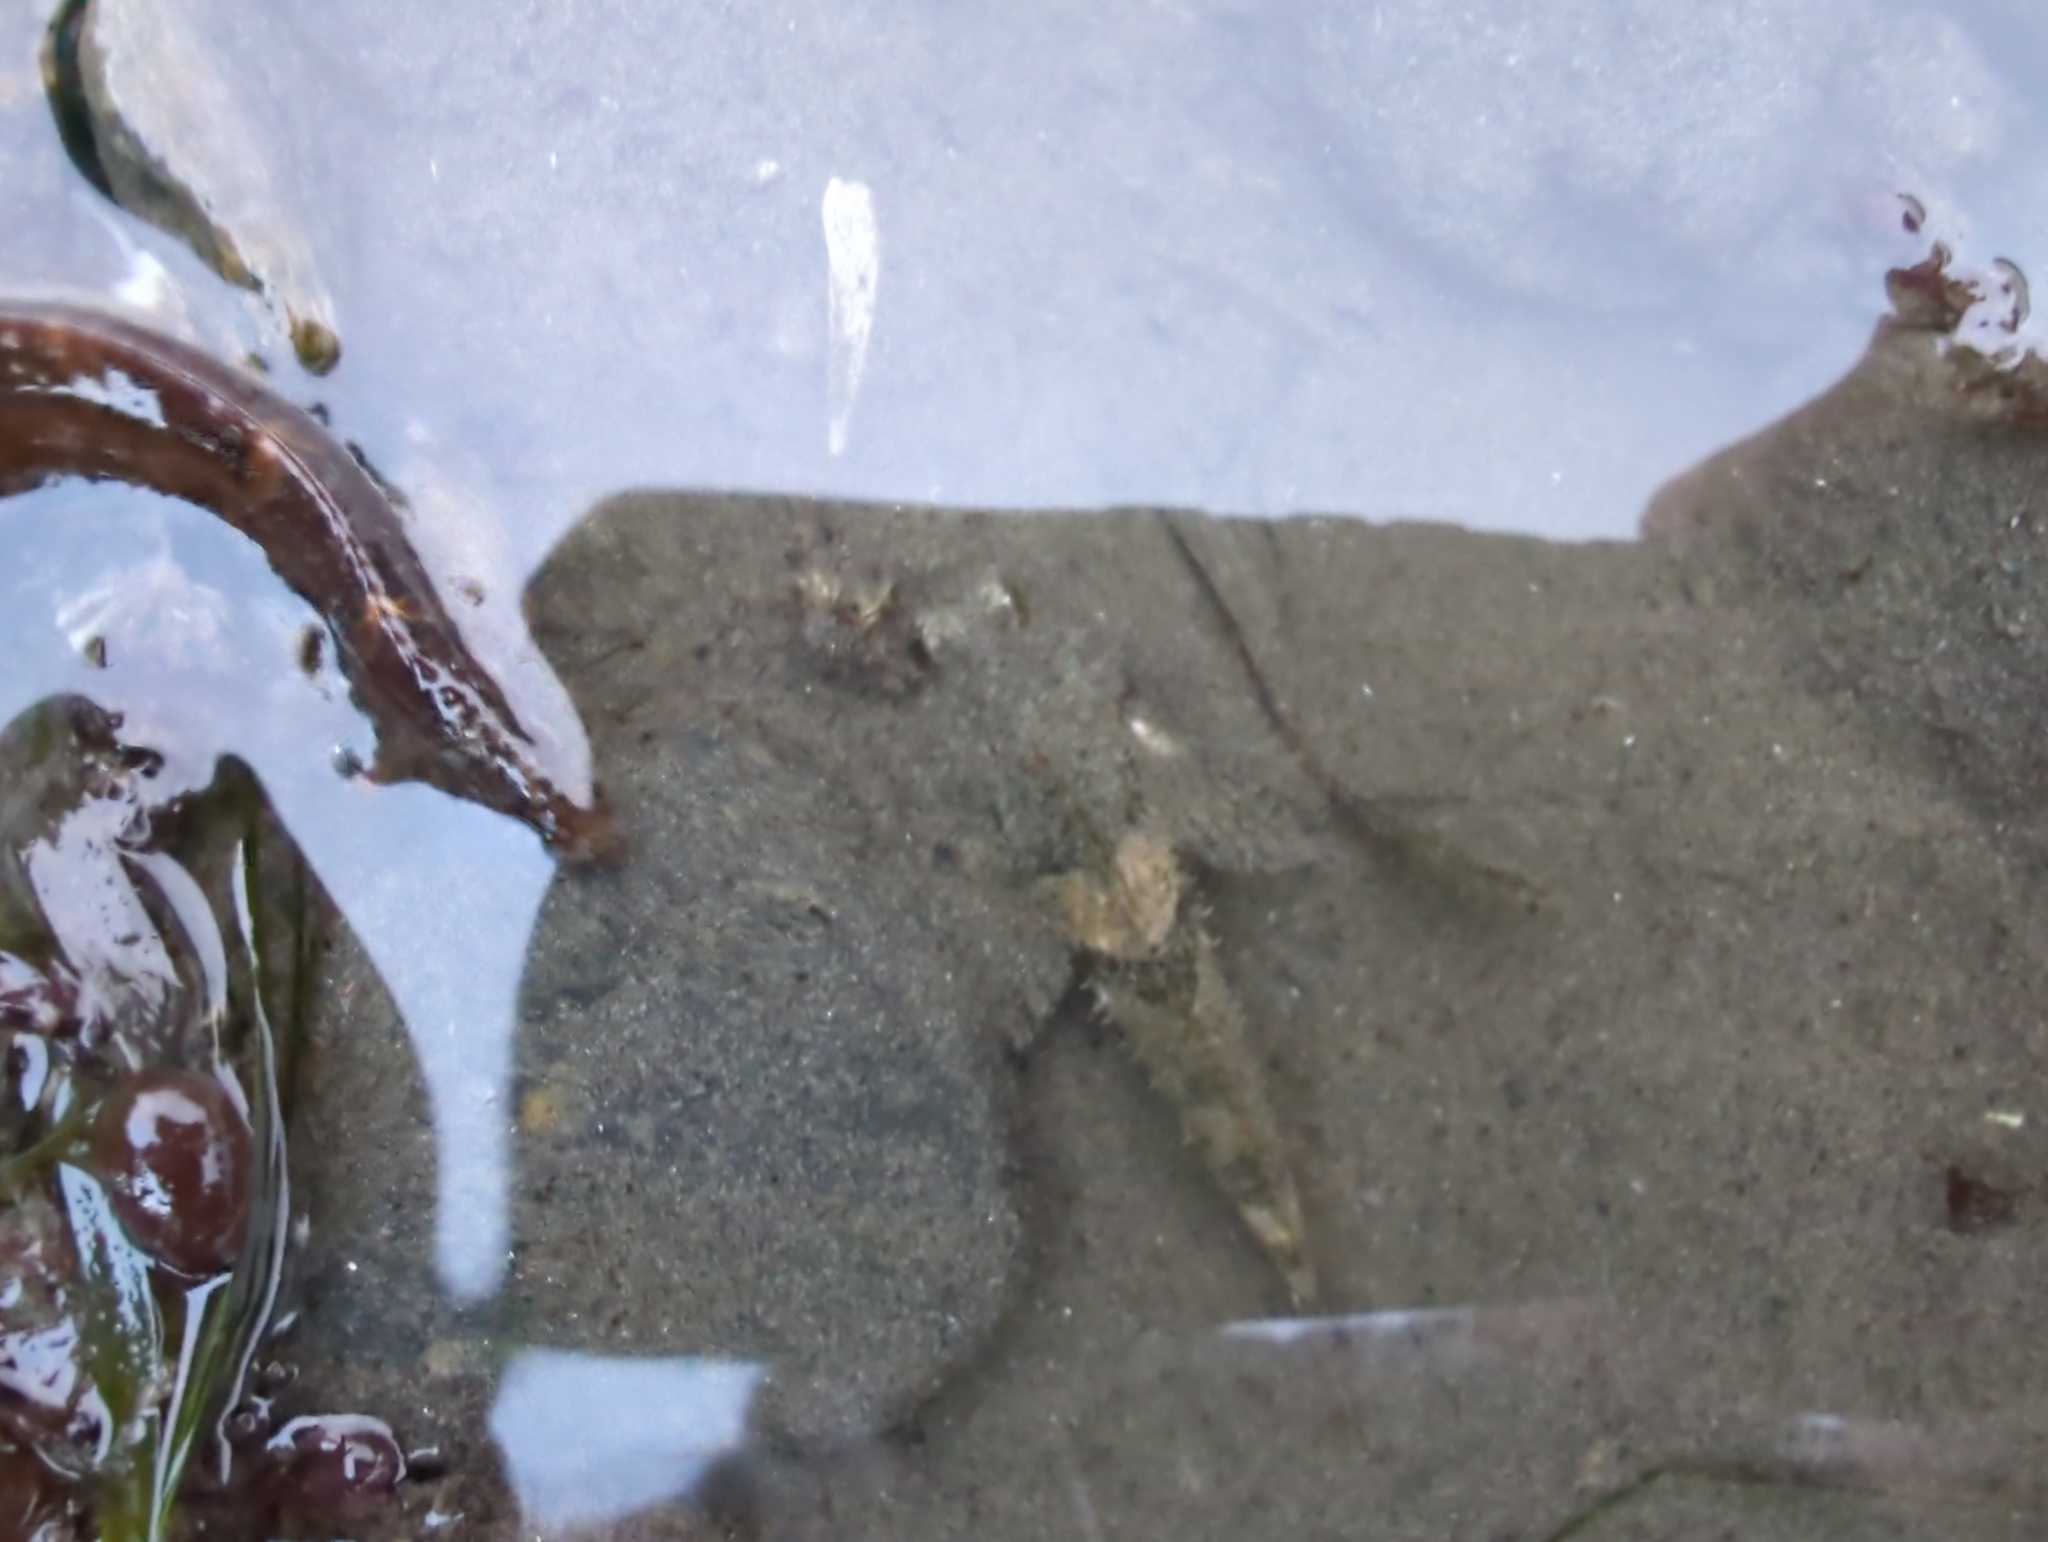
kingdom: Animalia
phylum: Chordata
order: Scorpaeniformes
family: Cottidae
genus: Oligocottus
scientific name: Oligocottus maculosus
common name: Tidepool sculpin
